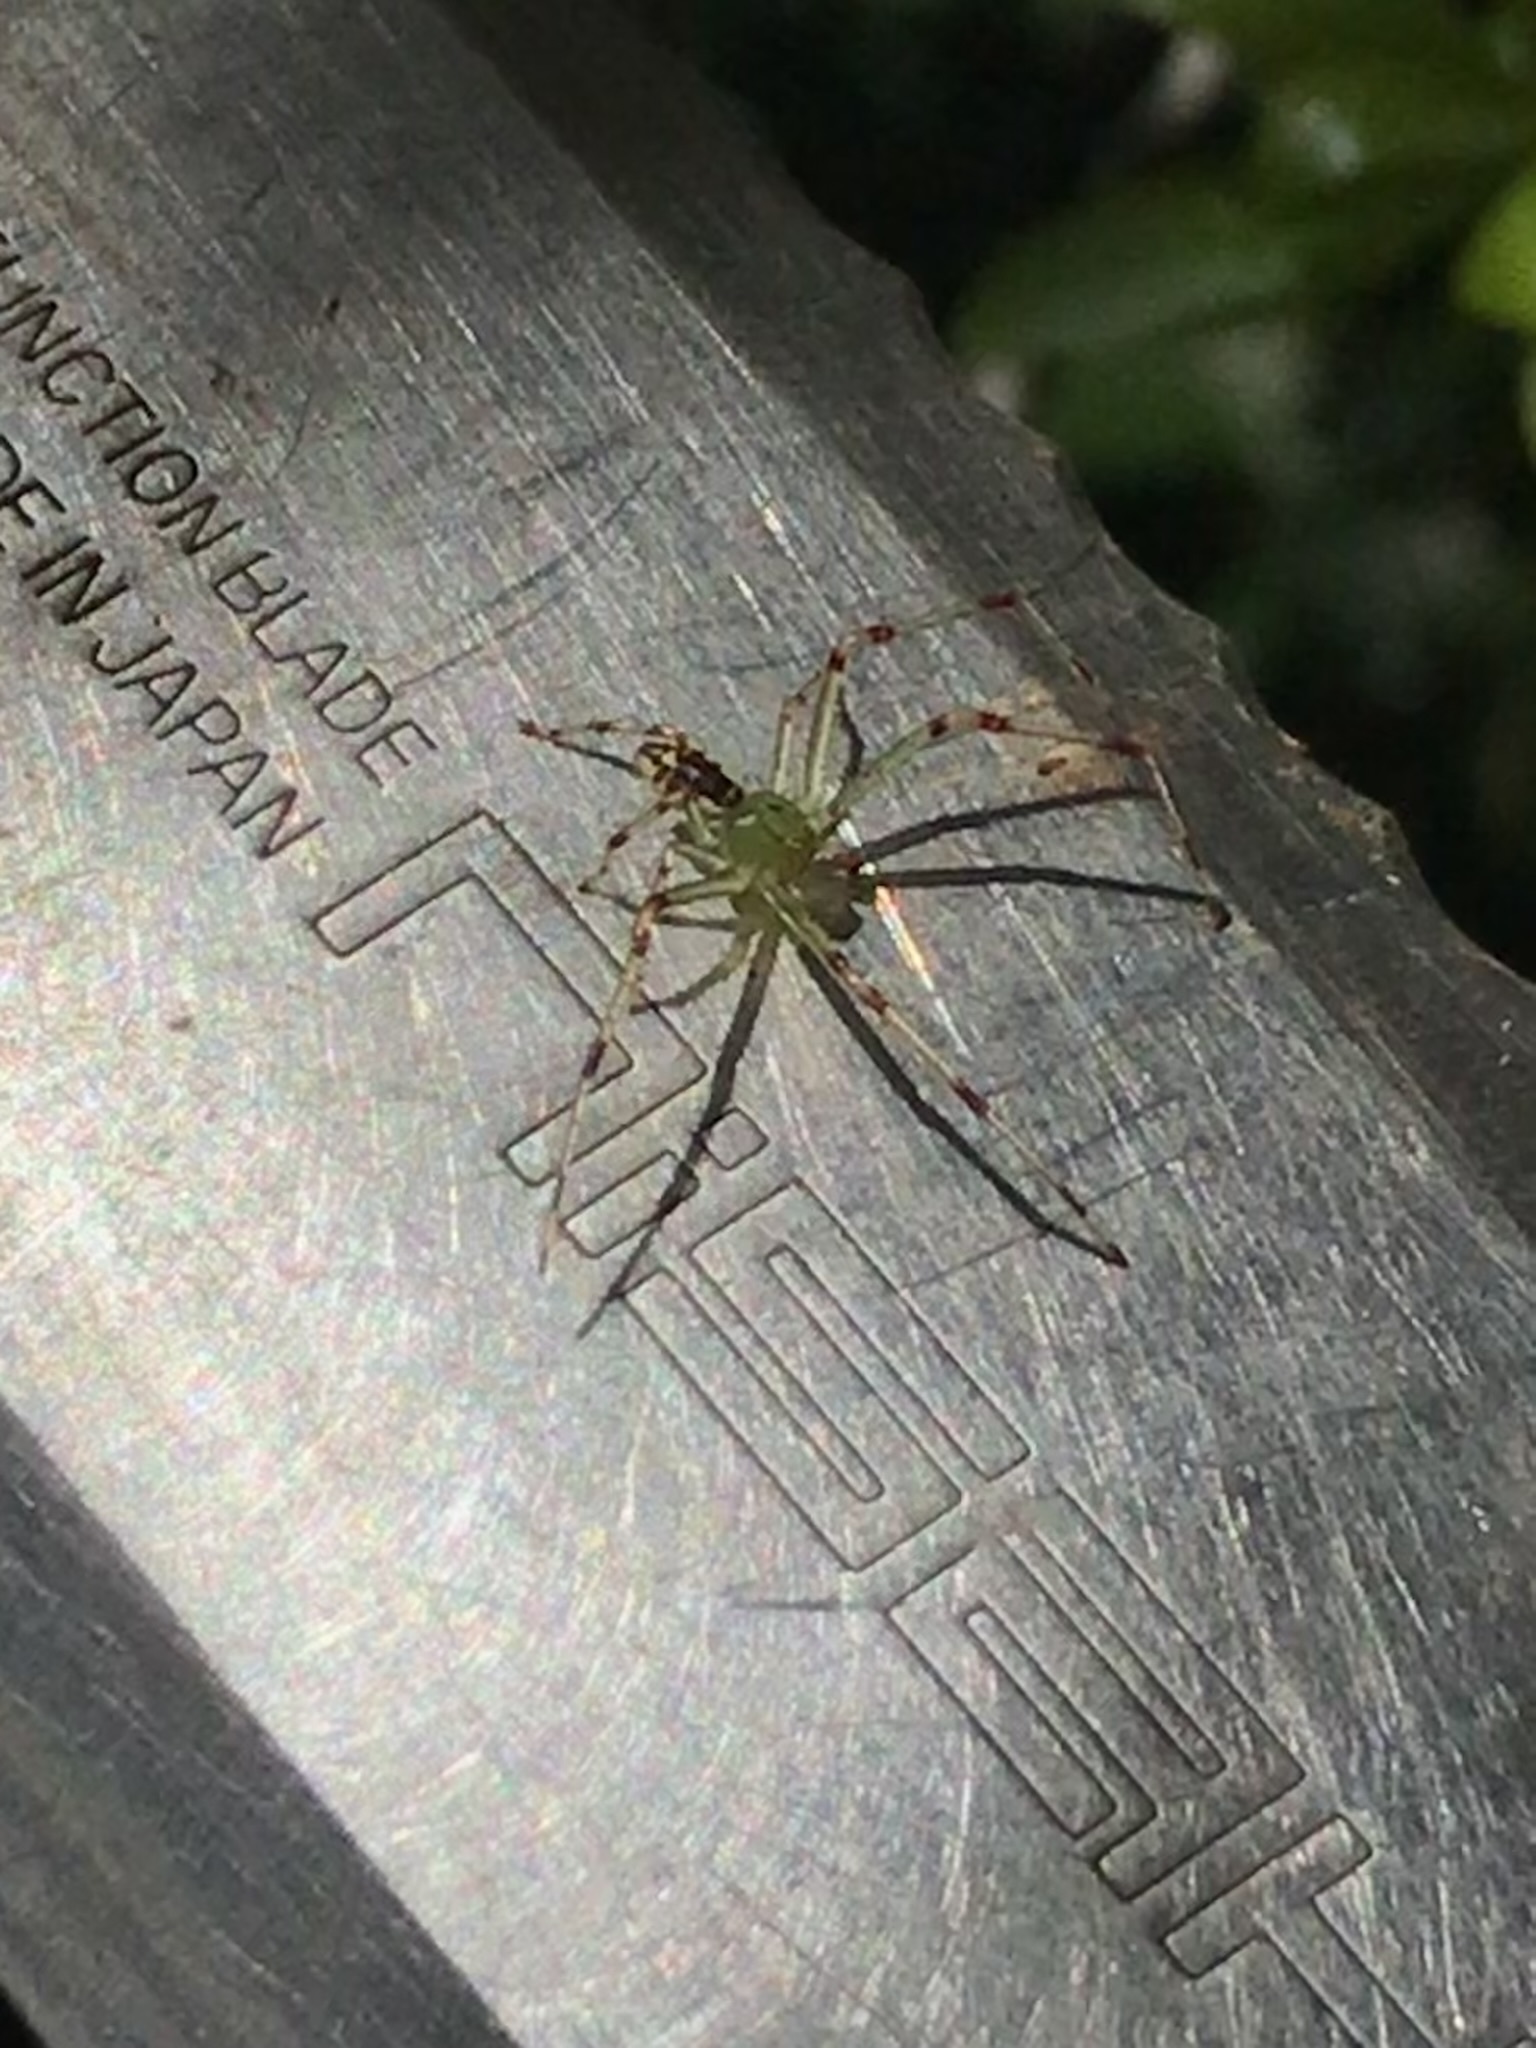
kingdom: Animalia
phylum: Arthropoda
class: Arachnida
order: Araneae
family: Thomisidae
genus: Diaea
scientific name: Diaea livens
